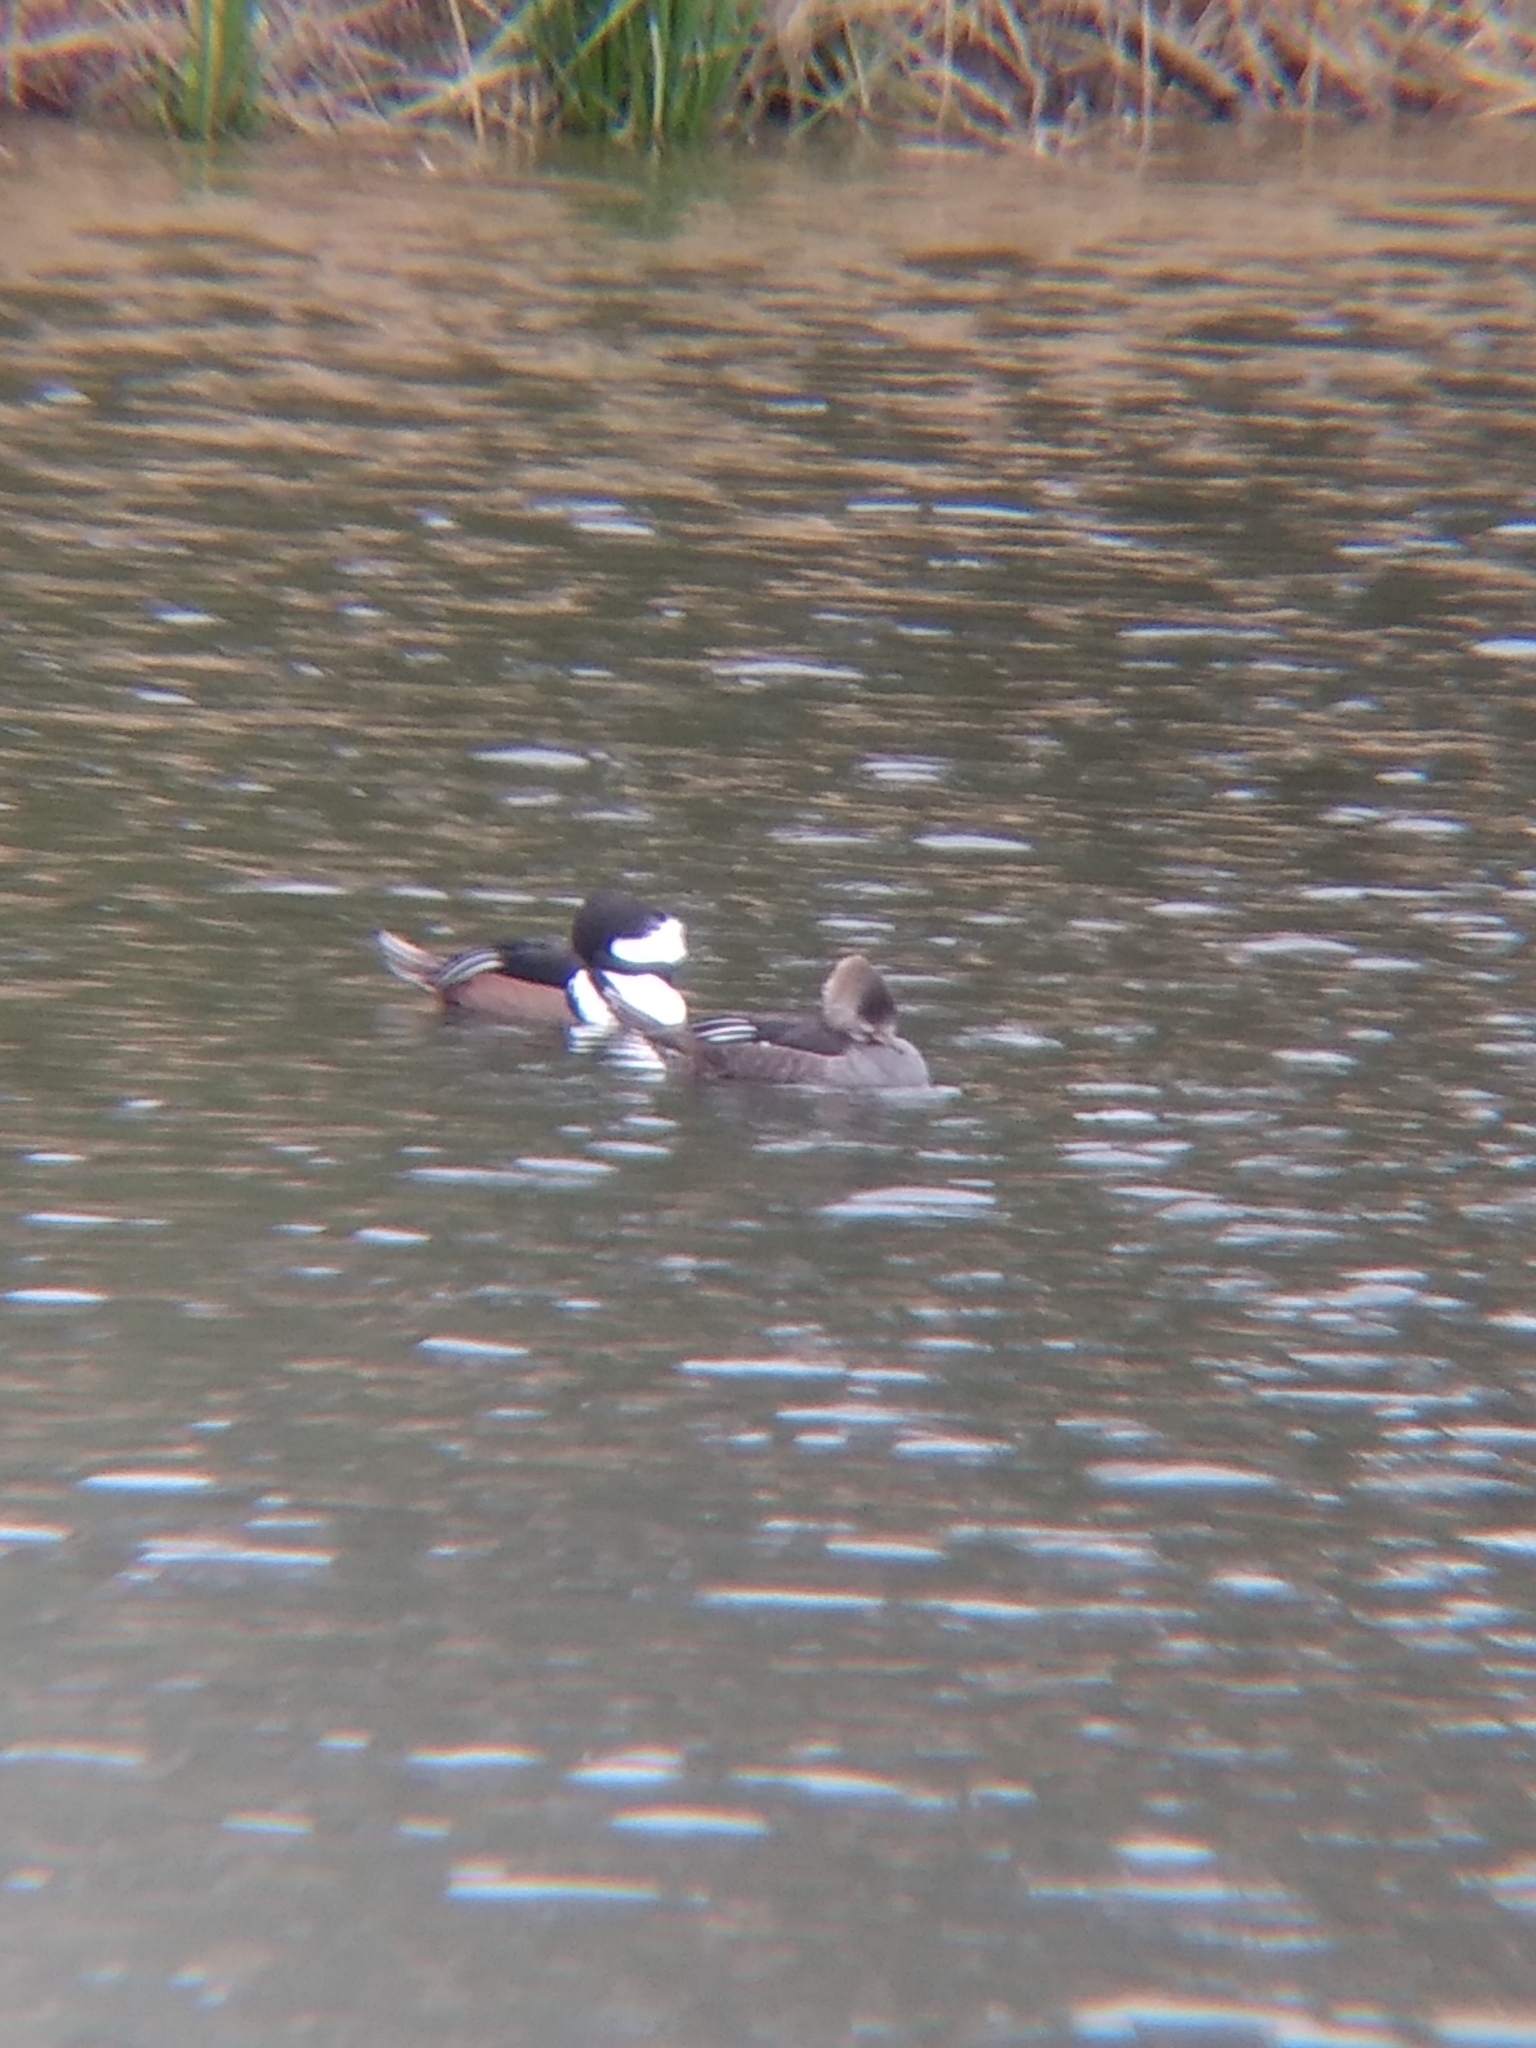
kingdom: Animalia
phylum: Chordata
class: Aves
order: Anseriformes
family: Anatidae
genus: Lophodytes
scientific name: Lophodytes cucullatus
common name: Hooded merganser
